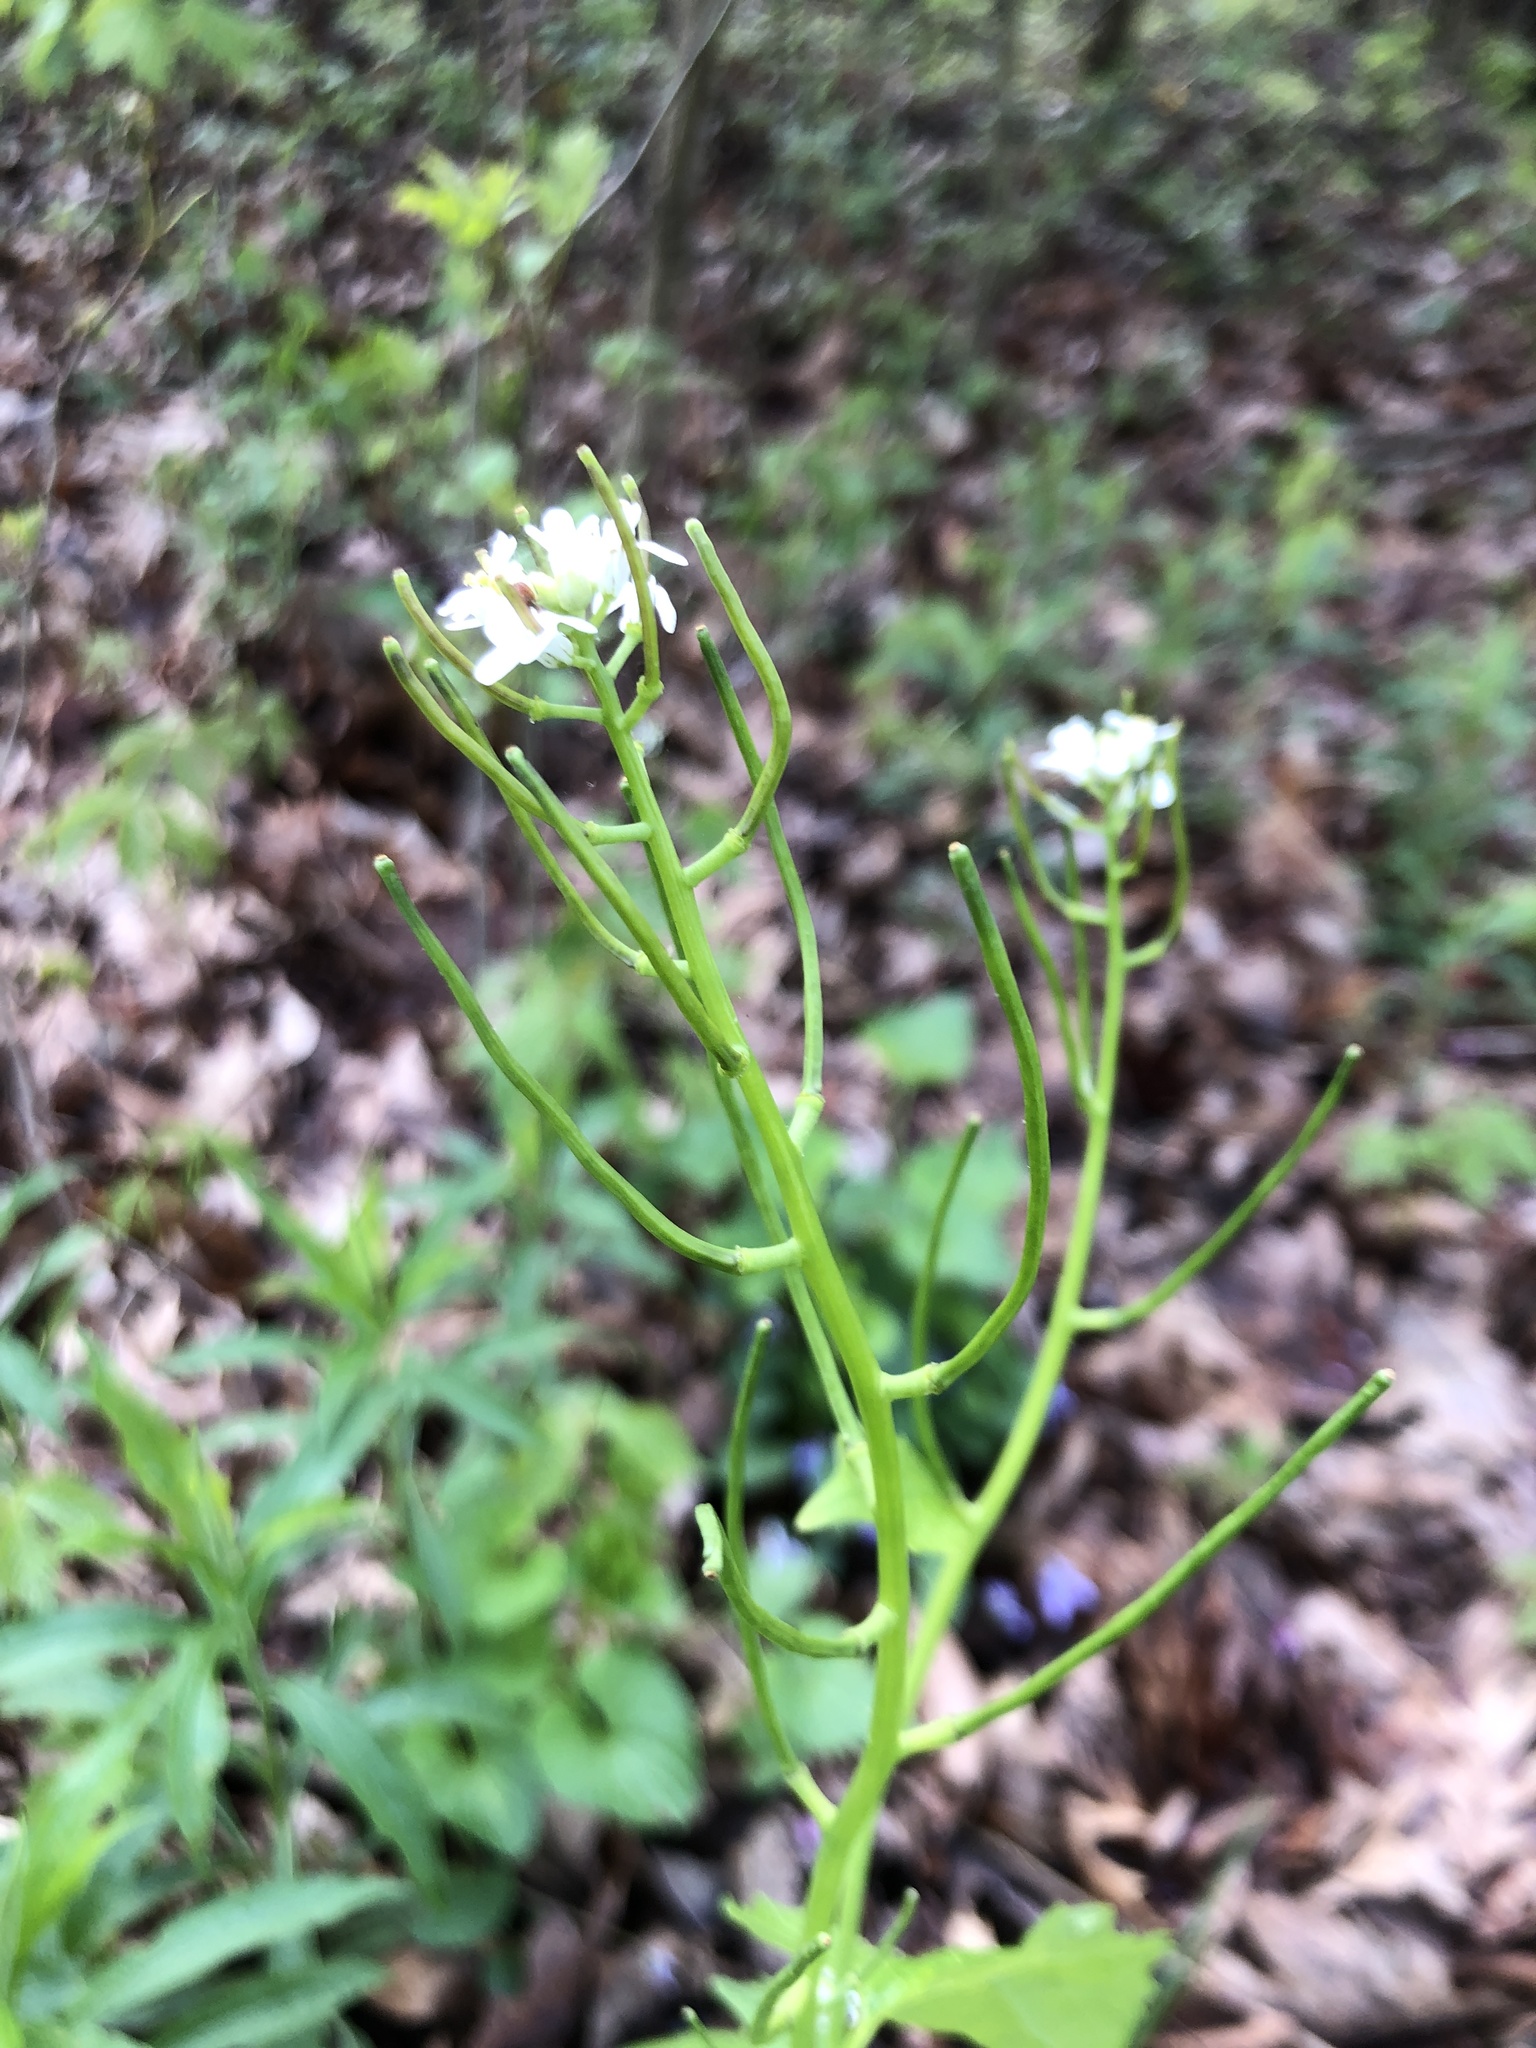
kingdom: Plantae
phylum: Tracheophyta
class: Magnoliopsida
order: Brassicales
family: Brassicaceae
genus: Alliaria
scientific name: Alliaria petiolata
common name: Garlic mustard
